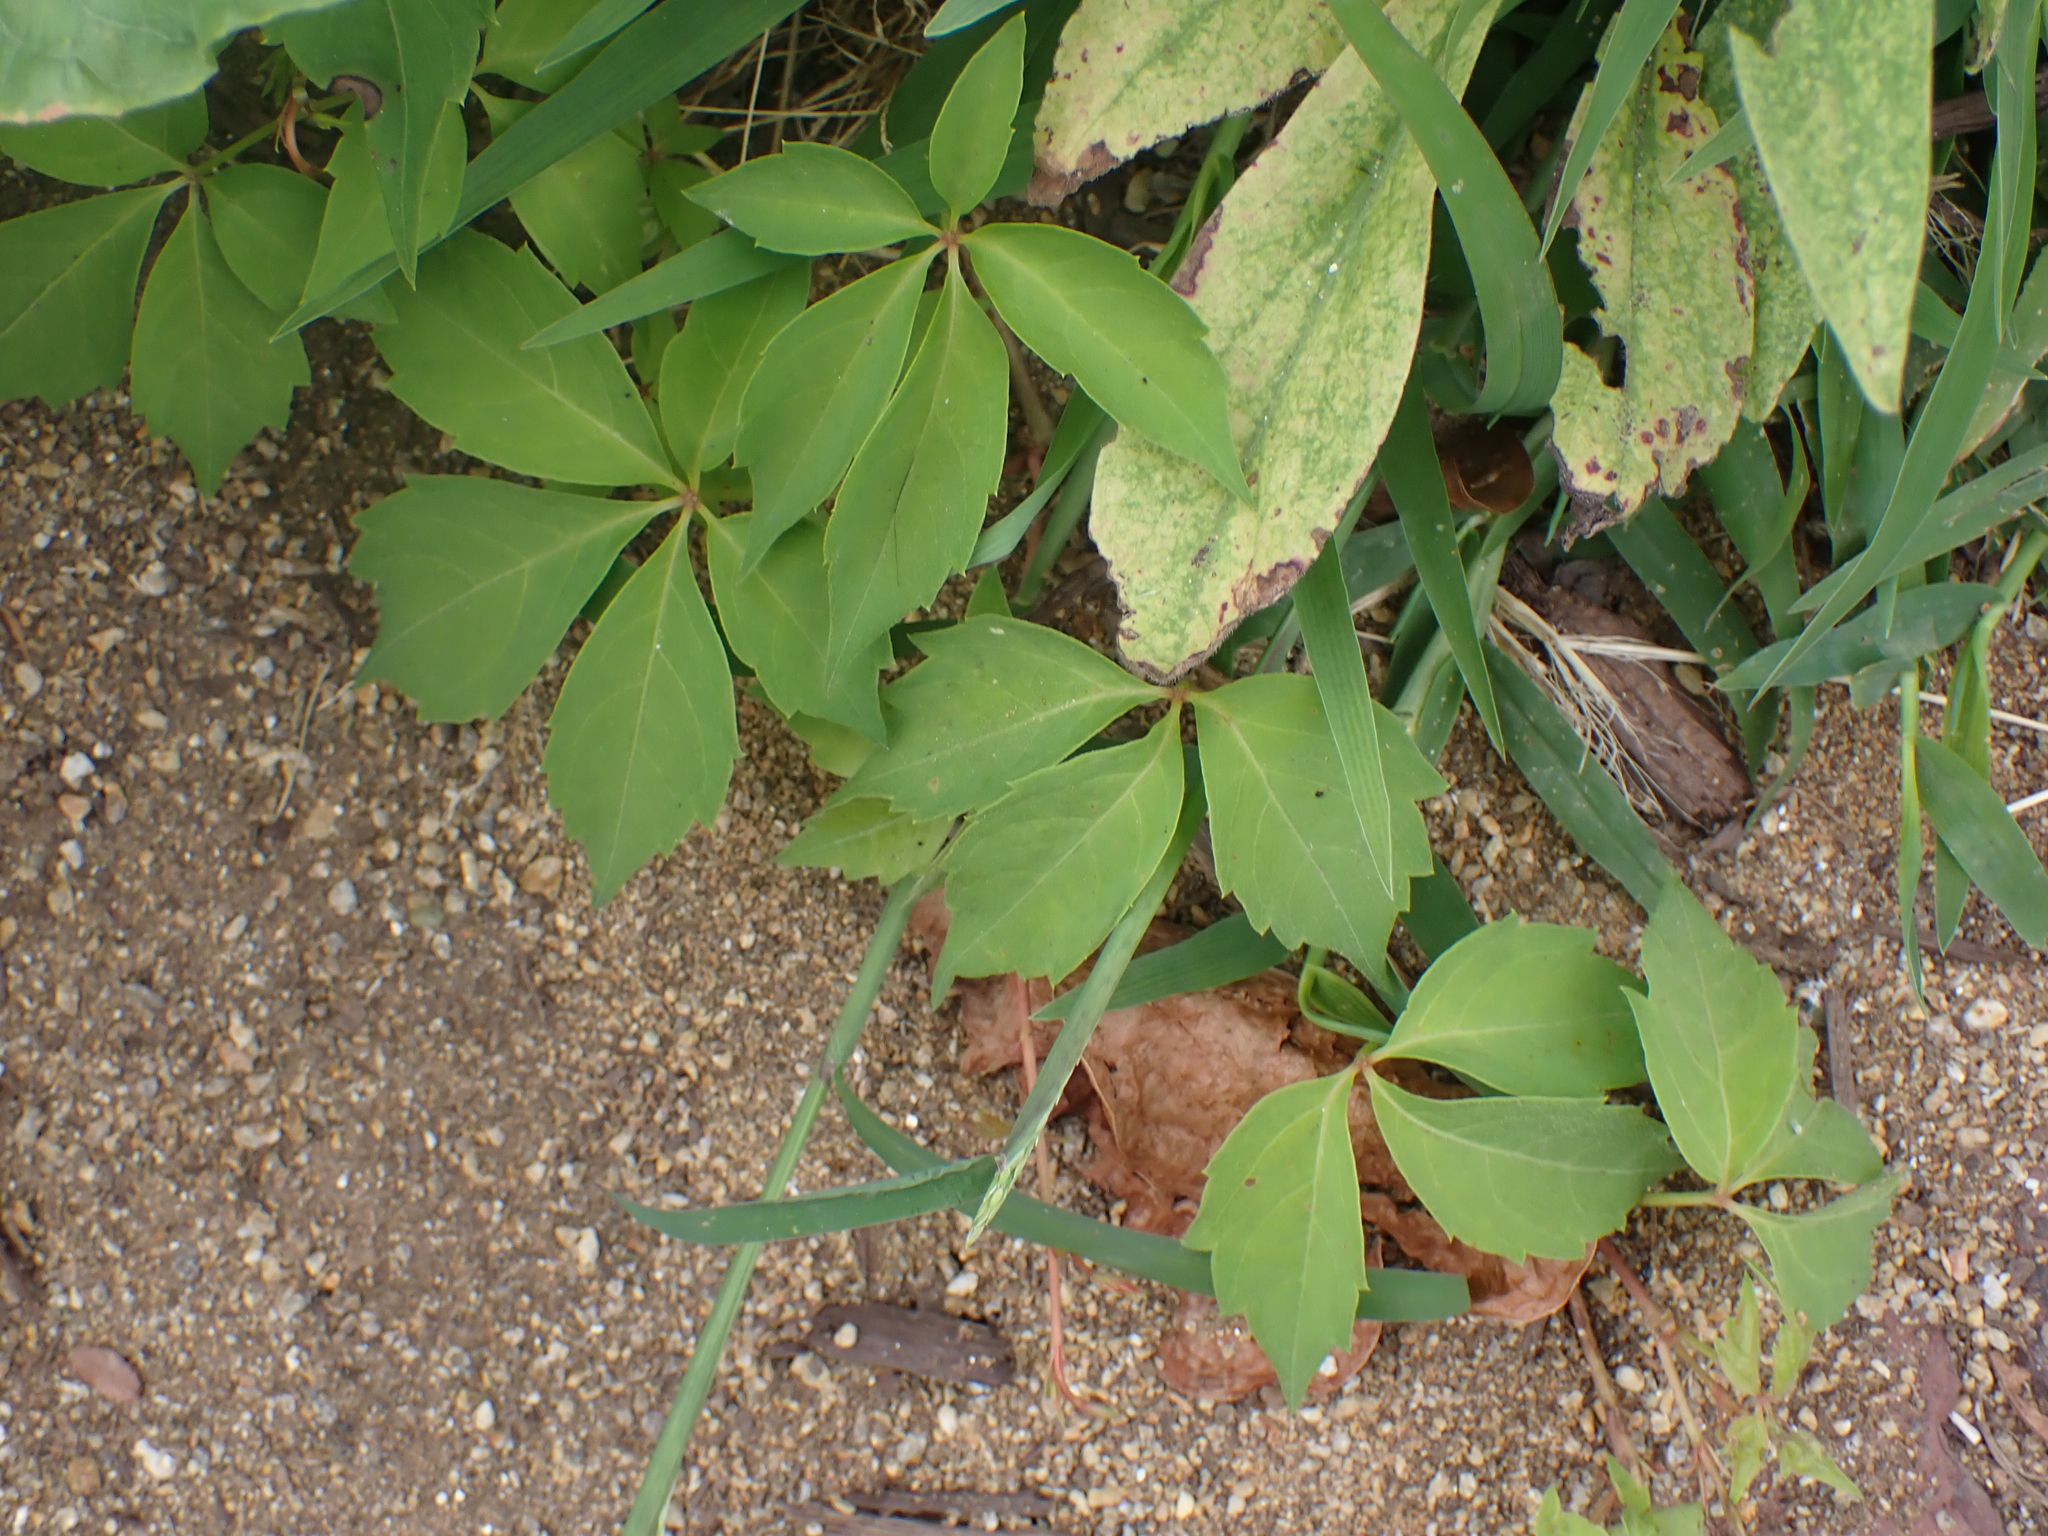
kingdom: Plantae
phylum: Tracheophyta
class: Magnoliopsida
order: Vitales
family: Vitaceae
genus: Parthenocissus
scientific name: Parthenocissus quinquefolia
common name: Virginia-creeper
